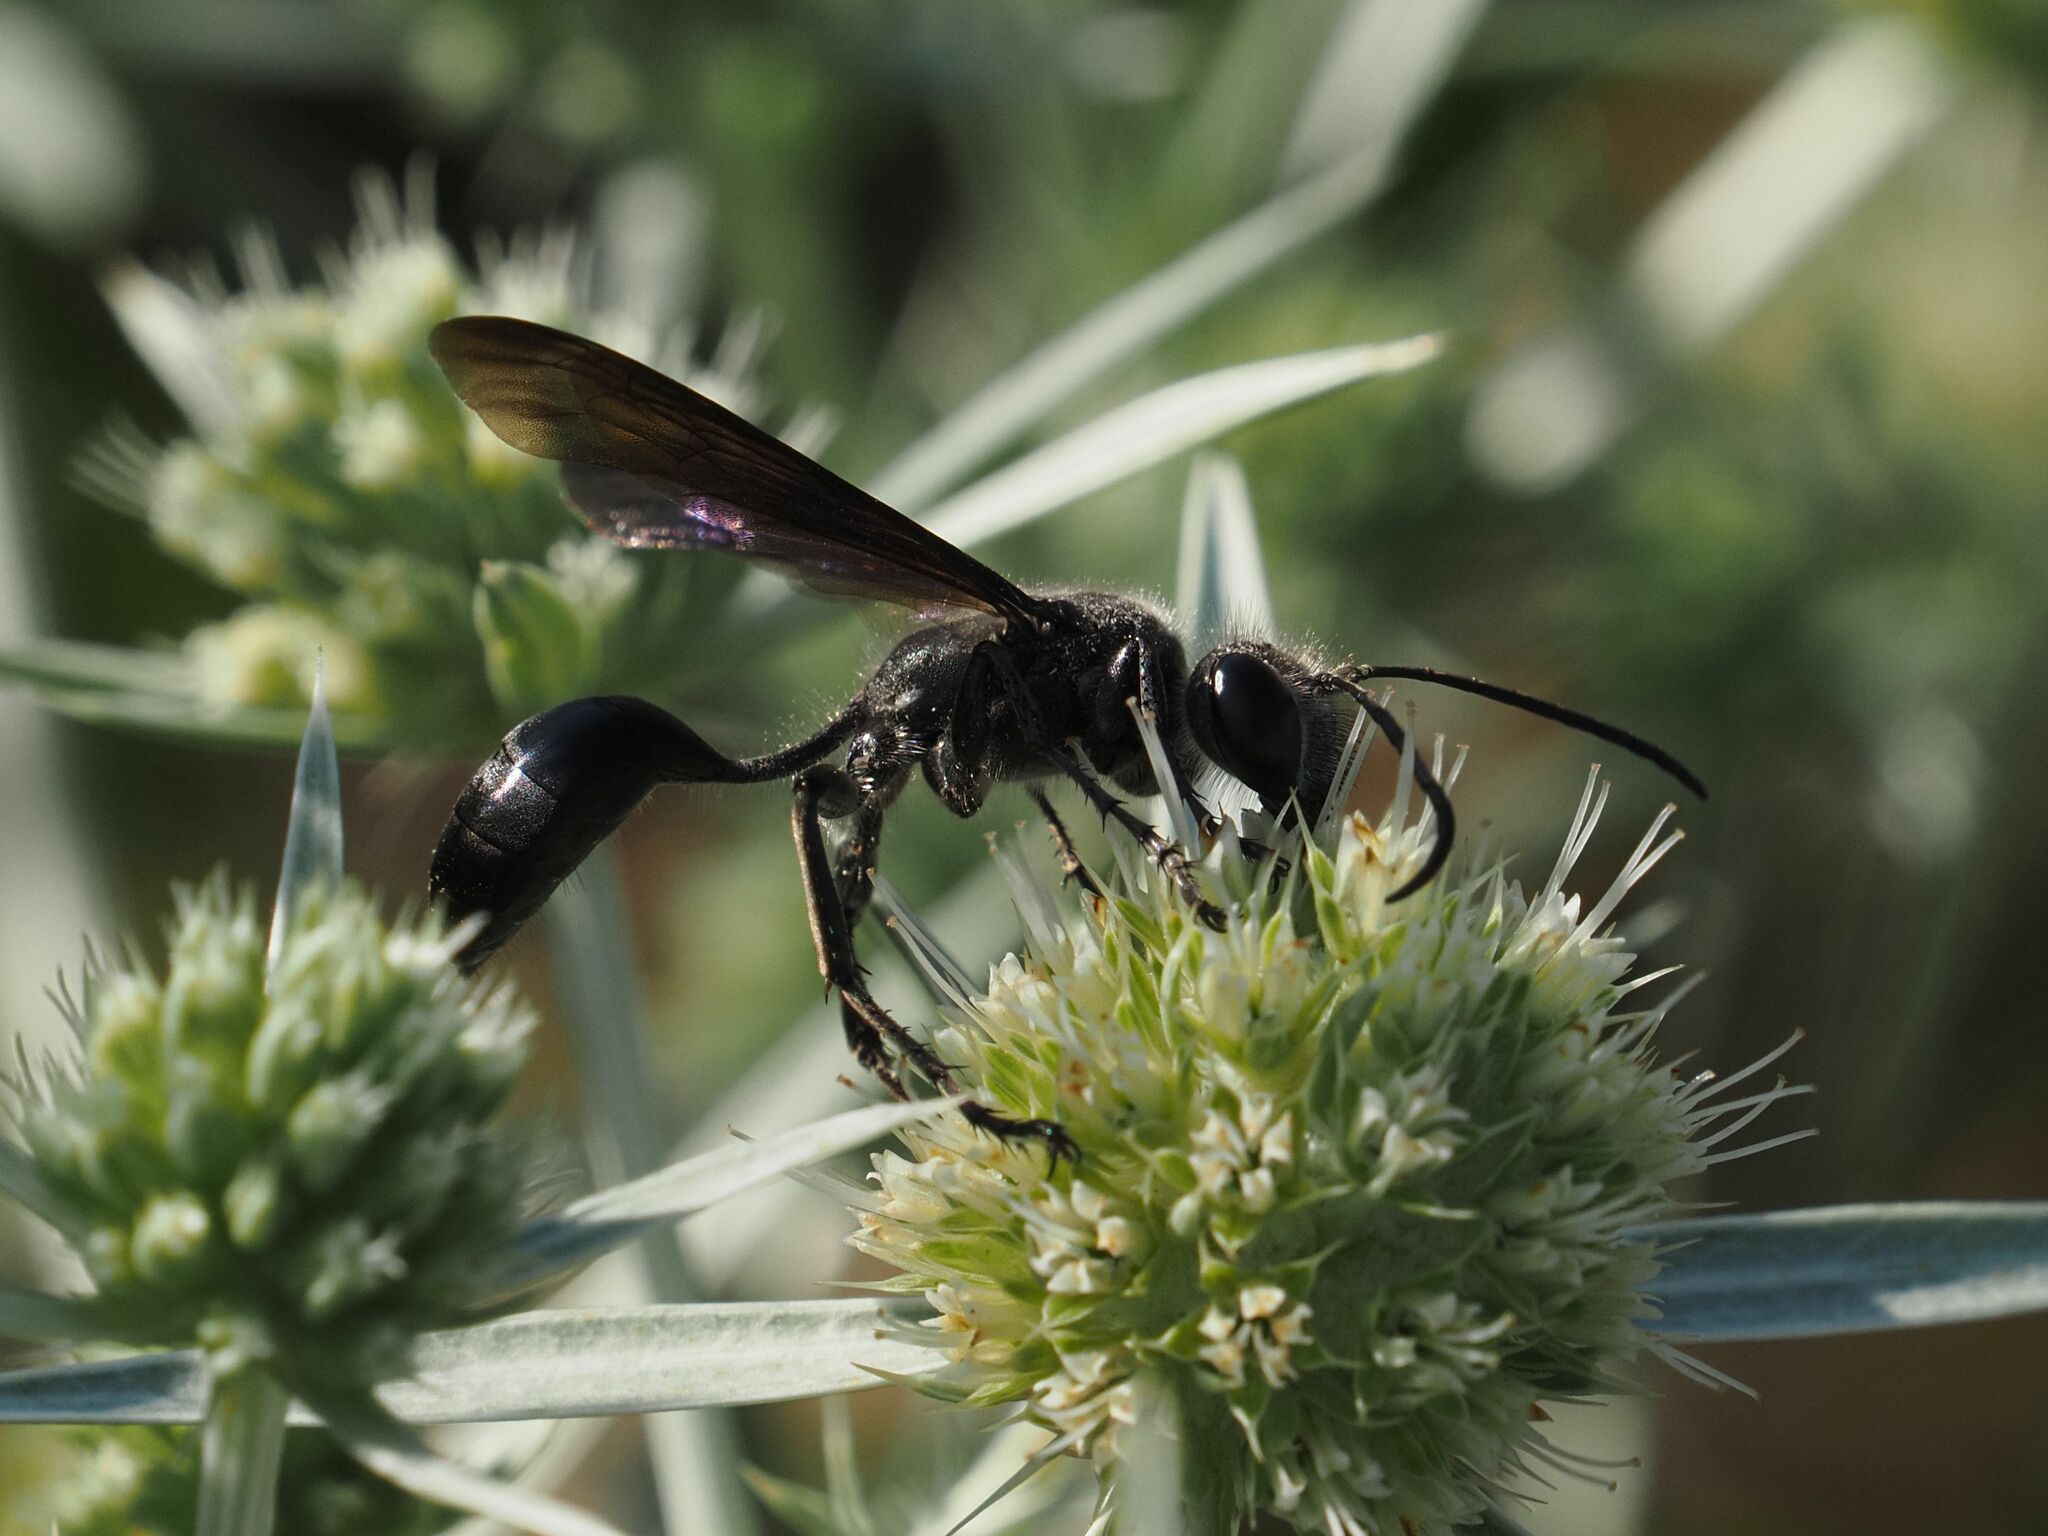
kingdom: Animalia
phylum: Arthropoda
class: Insecta
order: Hymenoptera
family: Sphecidae
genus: Isodontia
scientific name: Isodontia mexicana
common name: Mud dauber
